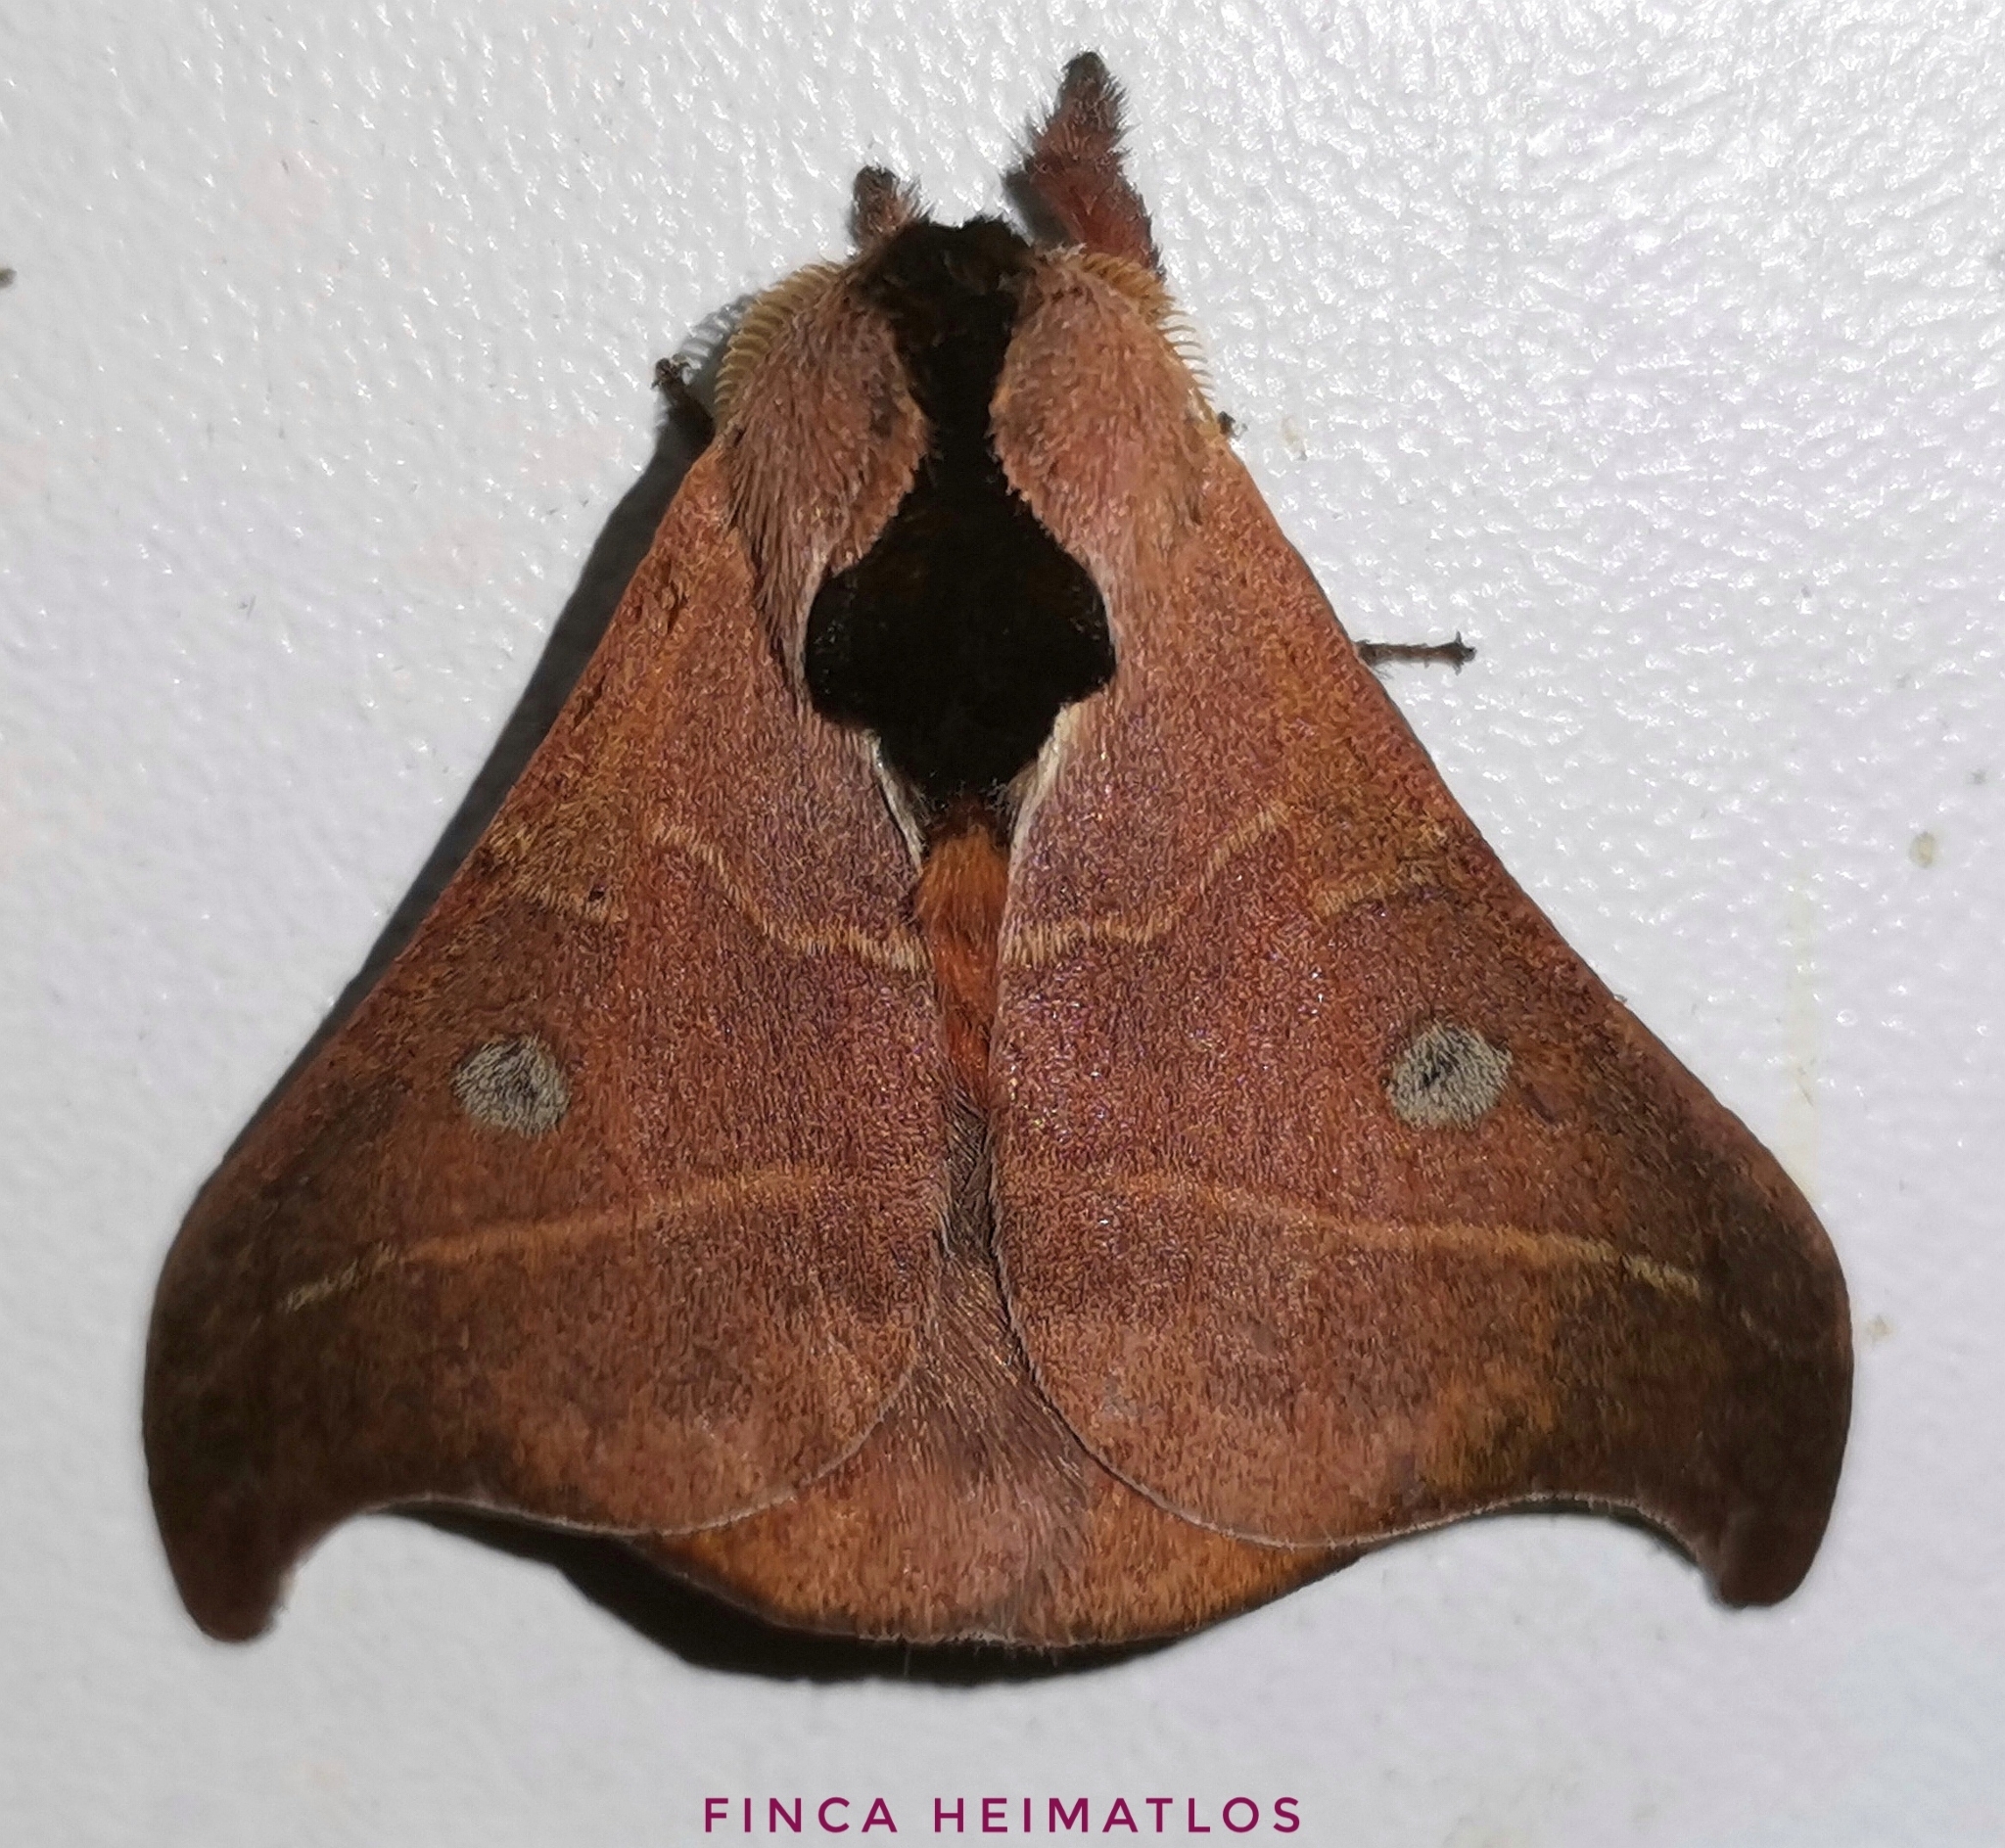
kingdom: Animalia
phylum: Arthropoda
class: Insecta
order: Lepidoptera
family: Saturniidae
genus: Hylesia
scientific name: Hylesia nanus
